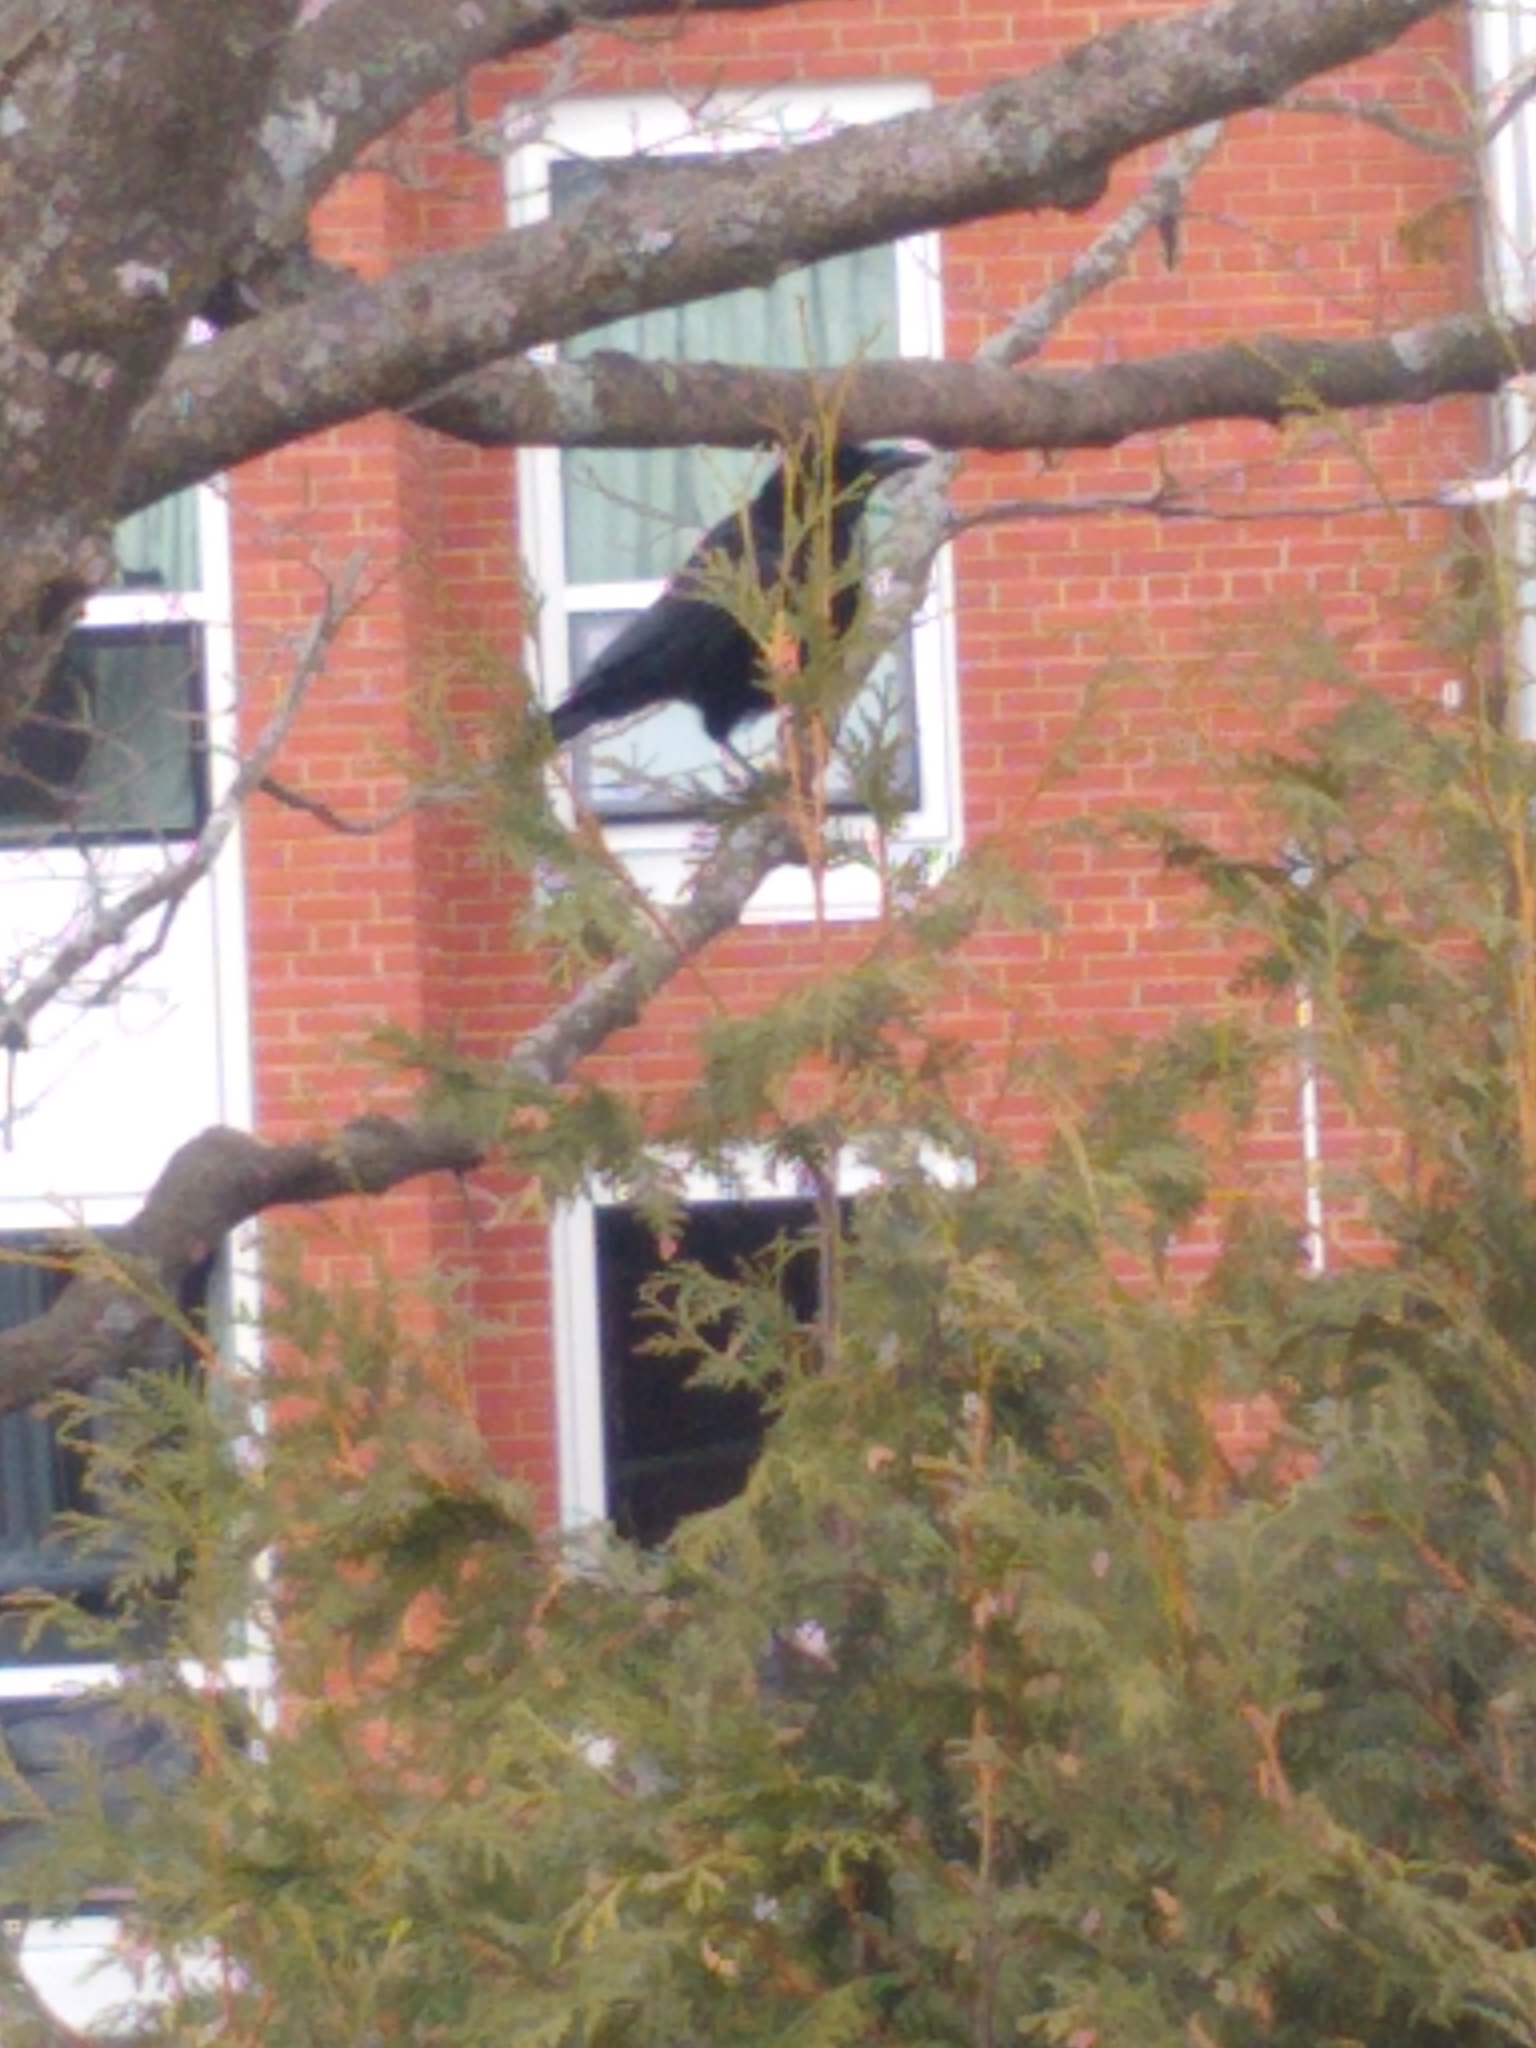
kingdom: Animalia
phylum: Chordata
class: Aves
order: Passeriformes
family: Corvidae
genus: Corvus
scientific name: Corvus brachyrhynchos
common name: American crow
